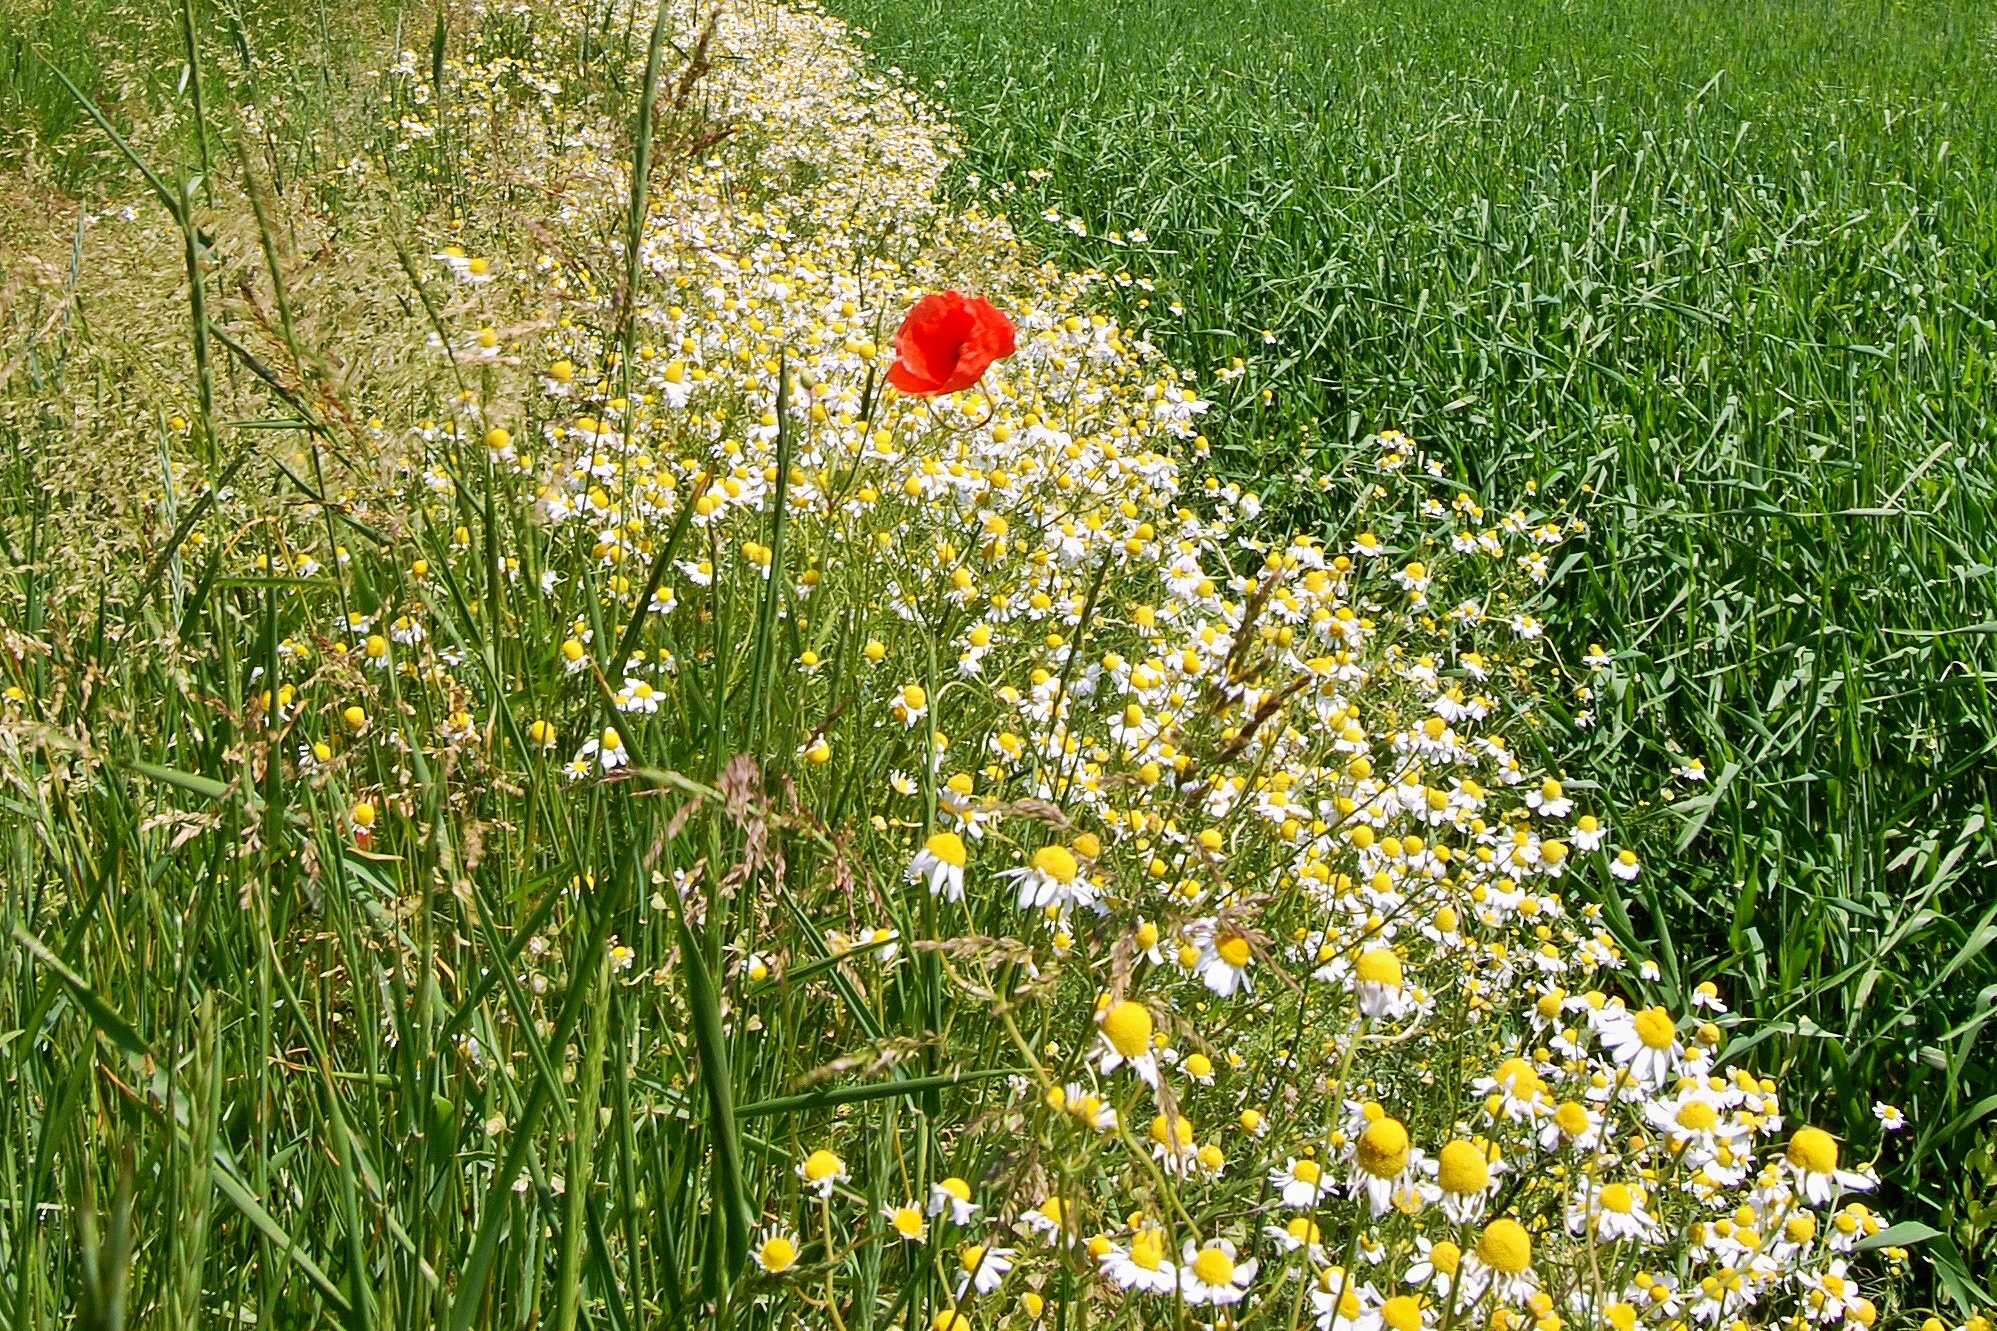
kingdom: Plantae
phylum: Tracheophyta
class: Magnoliopsida
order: Asterales
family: Asteraceae
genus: Matricaria
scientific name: Matricaria chamomilla
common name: Scented mayweed
